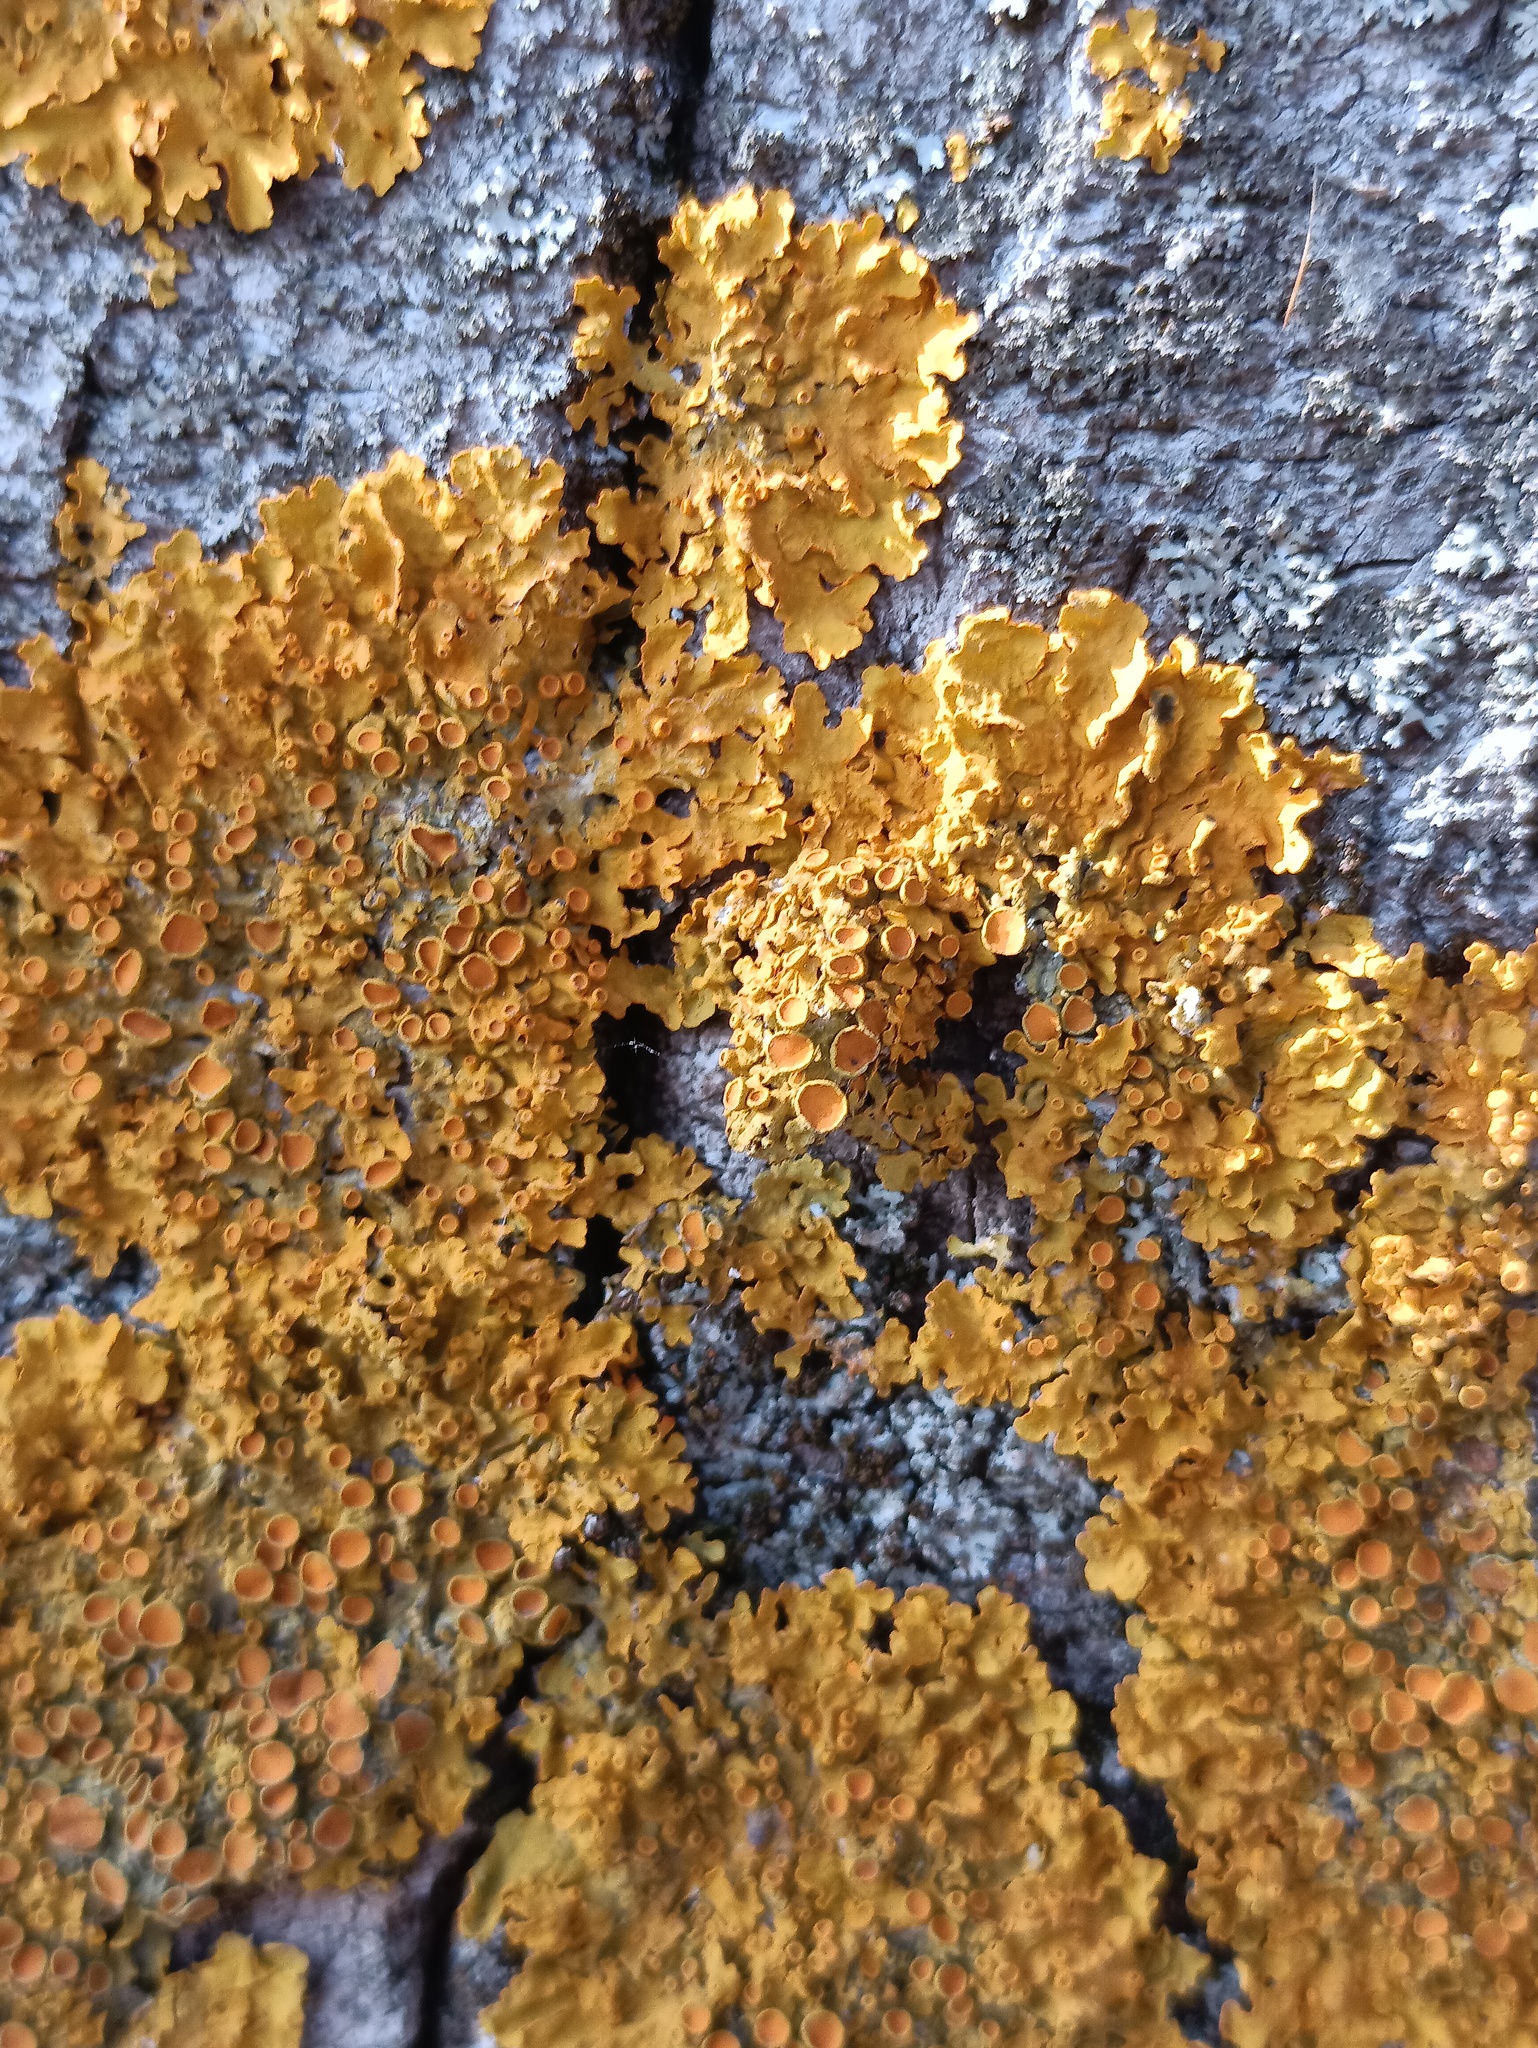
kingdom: Fungi
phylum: Ascomycota
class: Lecanoromycetes
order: Teloschistales
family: Teloschistaceae
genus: Xanthoria
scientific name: Xanthoria parietina
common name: Common orange lichen
